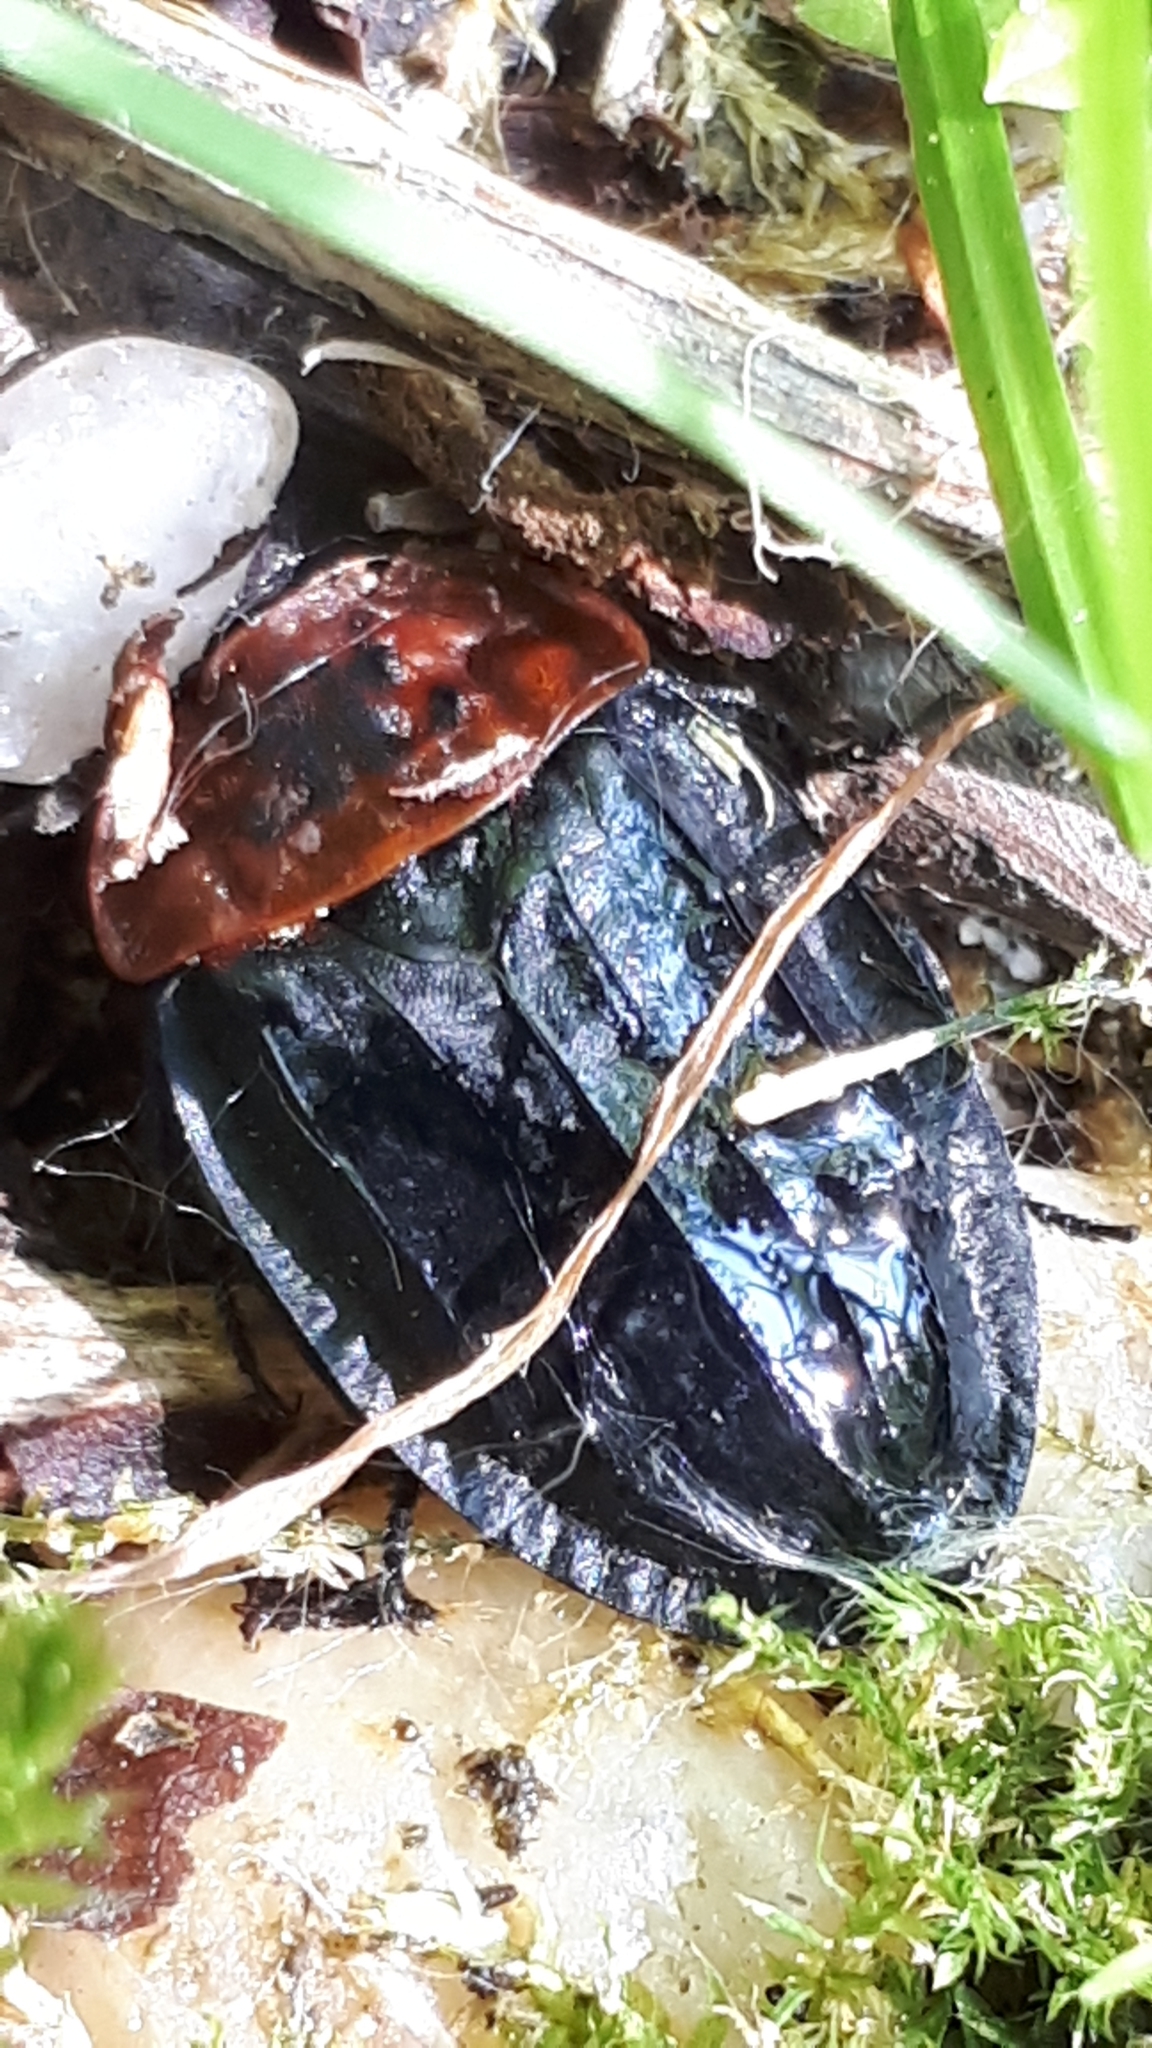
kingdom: Animalia
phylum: Arthropoda
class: Insecta
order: Coleoptera
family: Staphylinidae
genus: Oiceoptoma
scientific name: Oiceoptoma thoracicum
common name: Red-breasted carrion beetle
